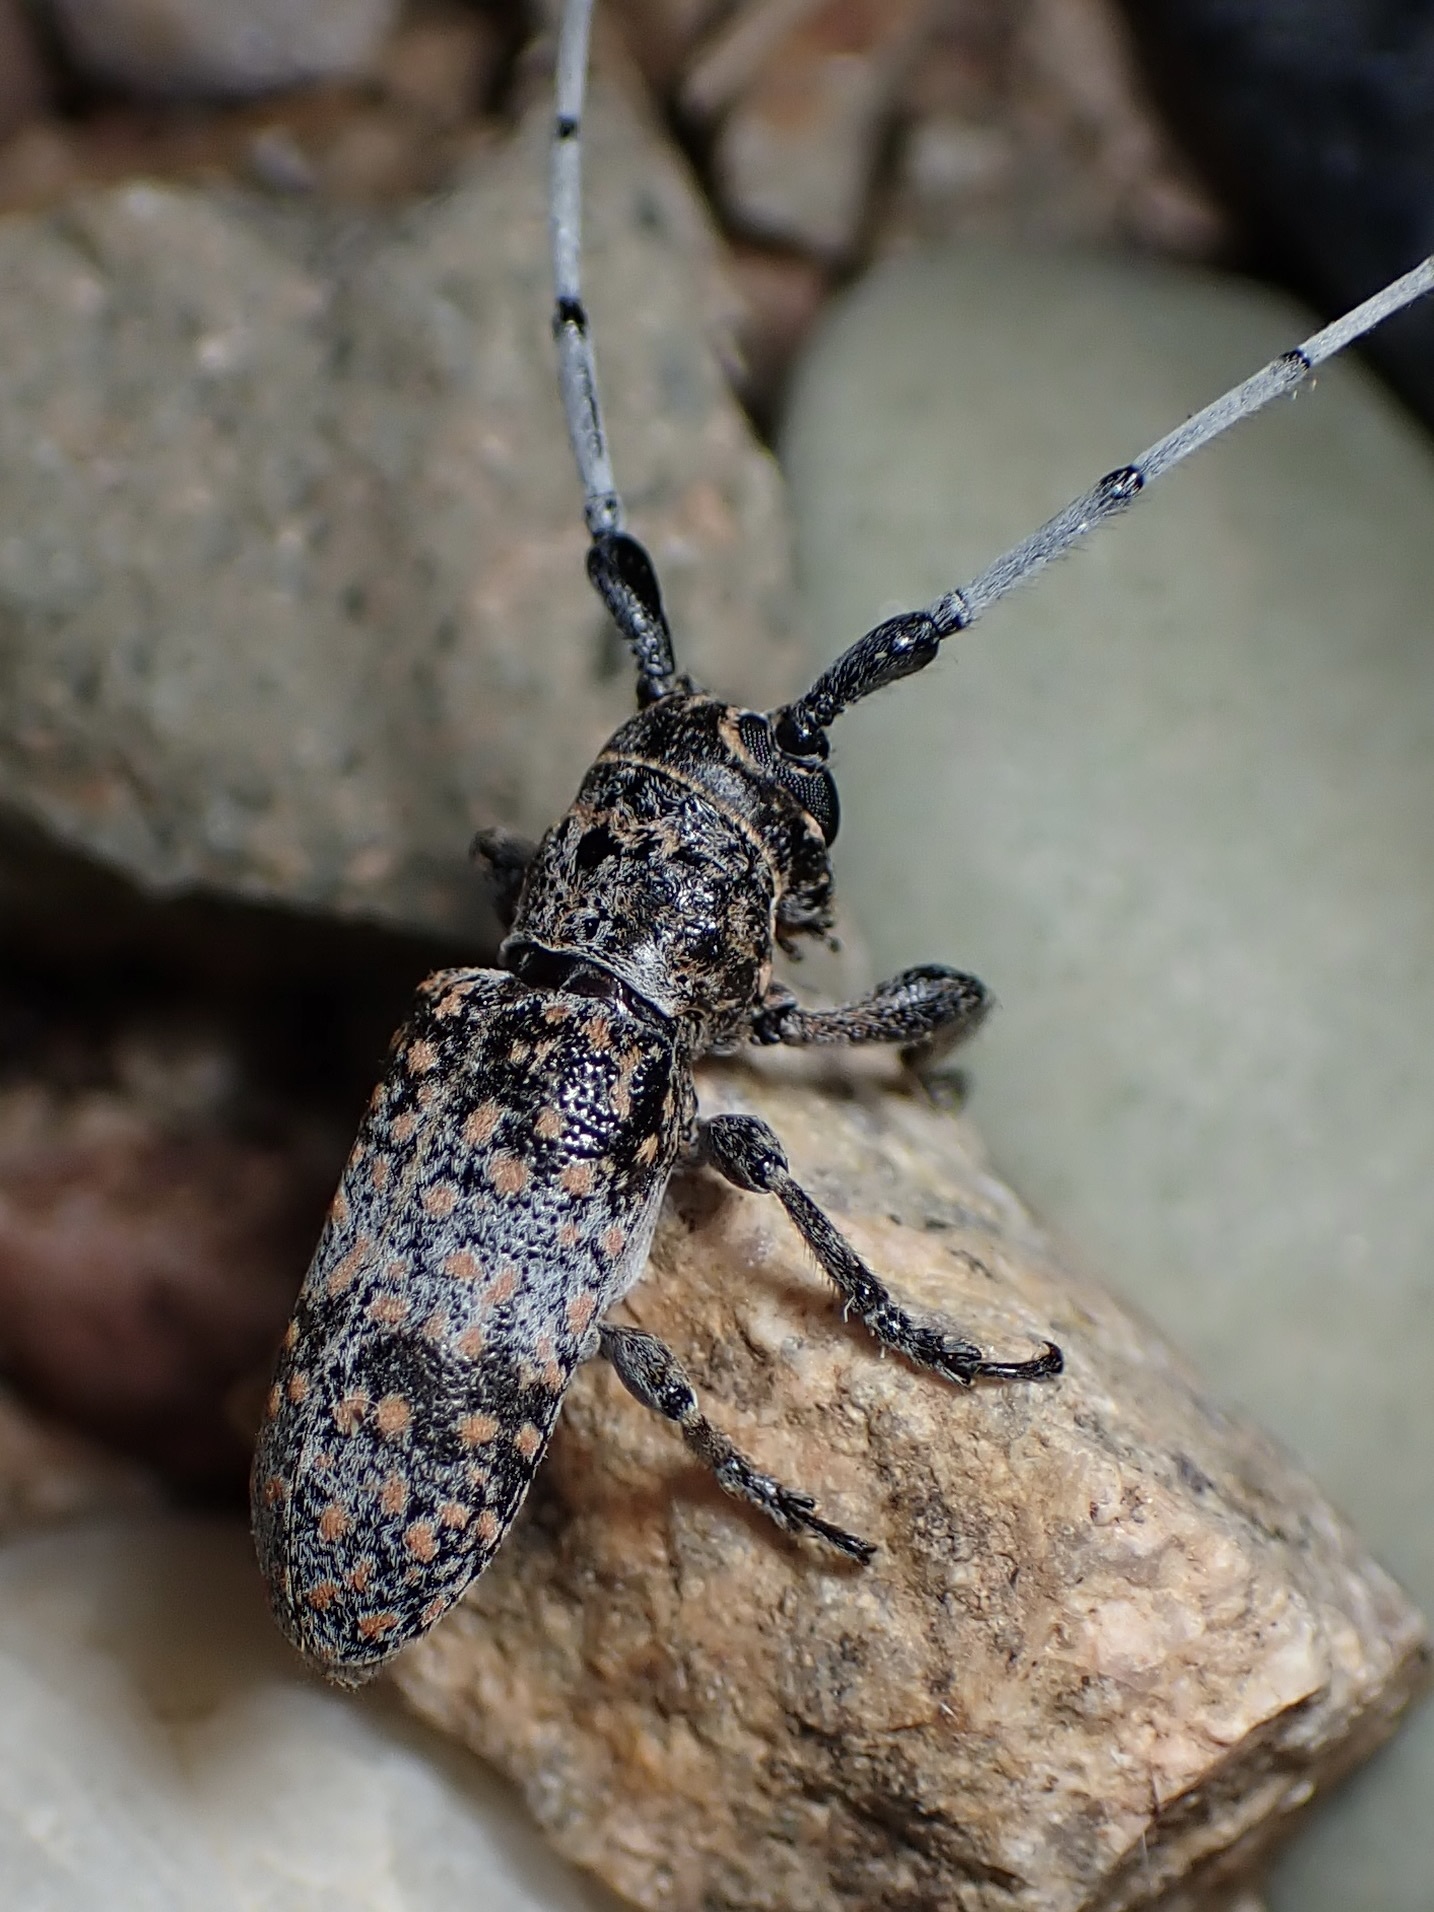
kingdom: Animalia
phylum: Arthropoda
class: Insecta
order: Coleoptera
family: Cerambycidae
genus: Oncideres
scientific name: Oncideres rhodosticta
